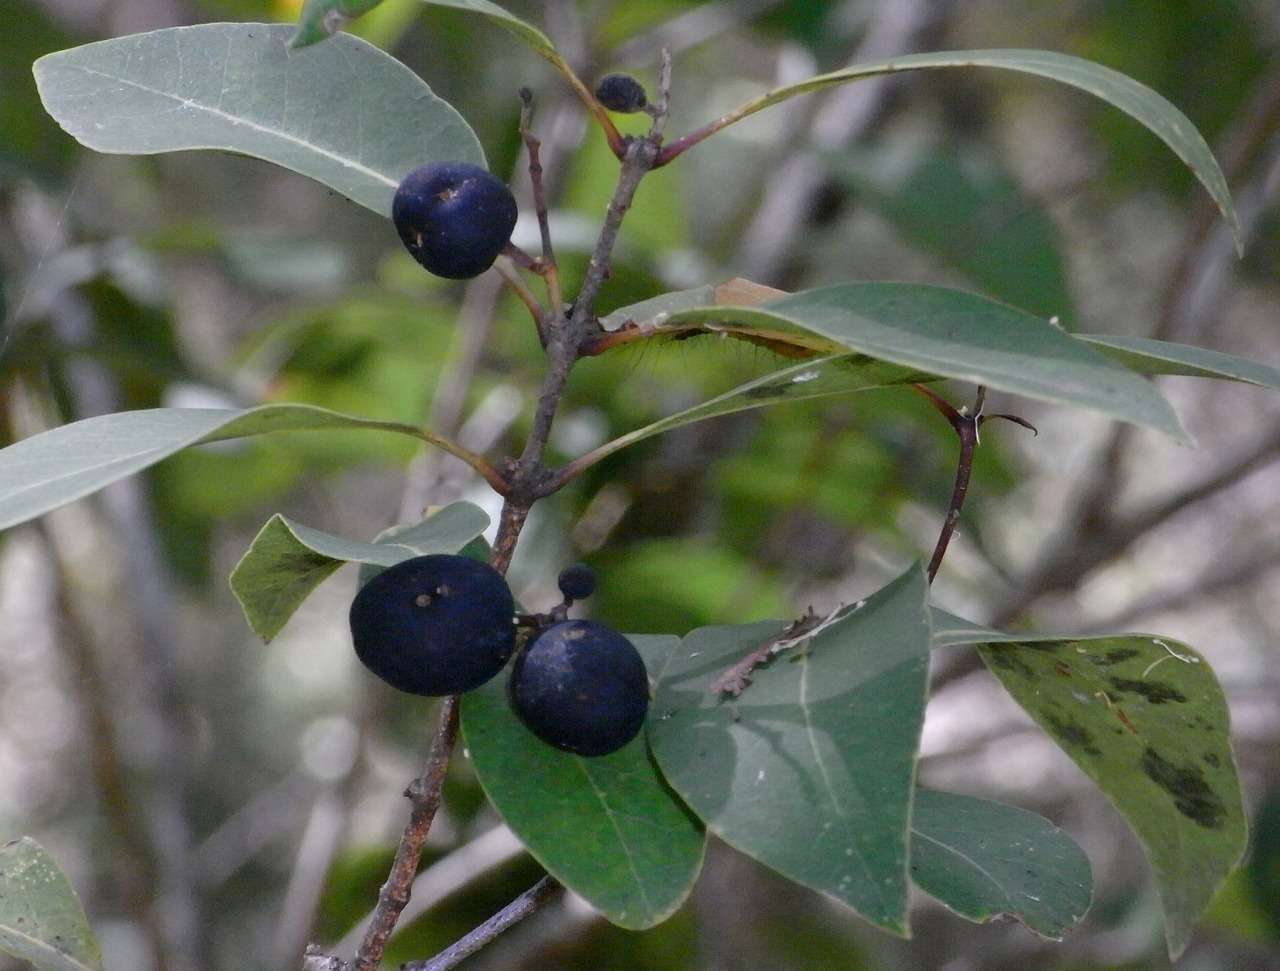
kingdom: Plantae
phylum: Tracheophyta
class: Magnoliopsida
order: Lamiales
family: Oleaceae
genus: Notelaea
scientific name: Notelaea venosa
